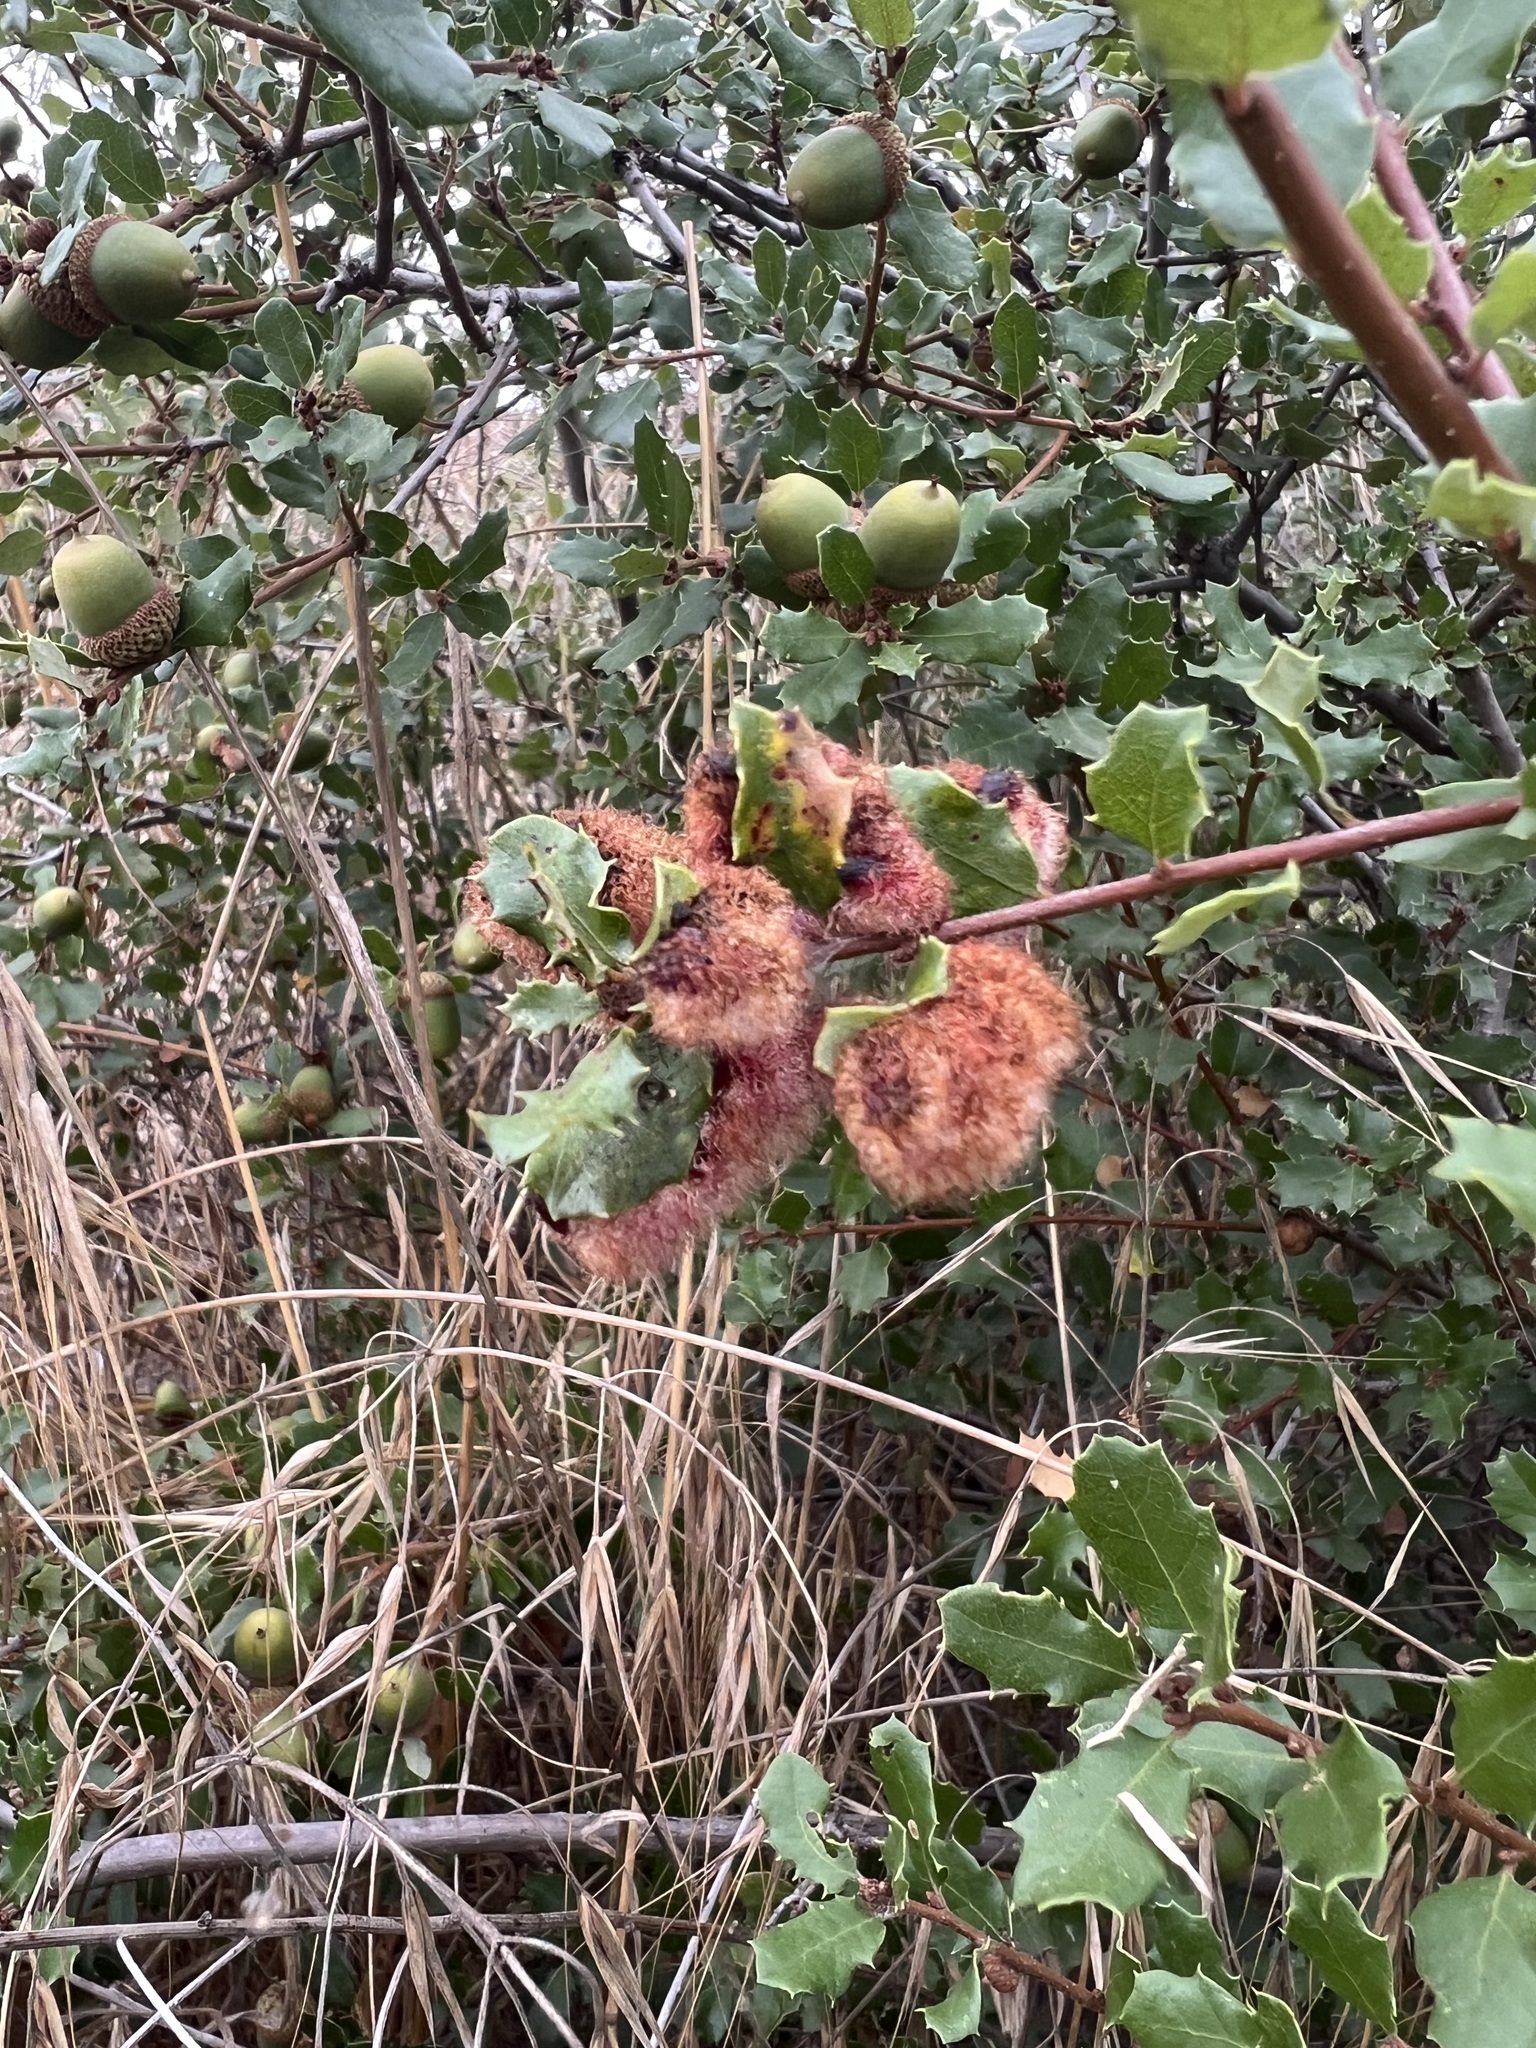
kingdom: Animalia
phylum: Arthropoda
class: Insecta
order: Hymenoptera
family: Cynipidae
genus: Andricus
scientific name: Andricus
